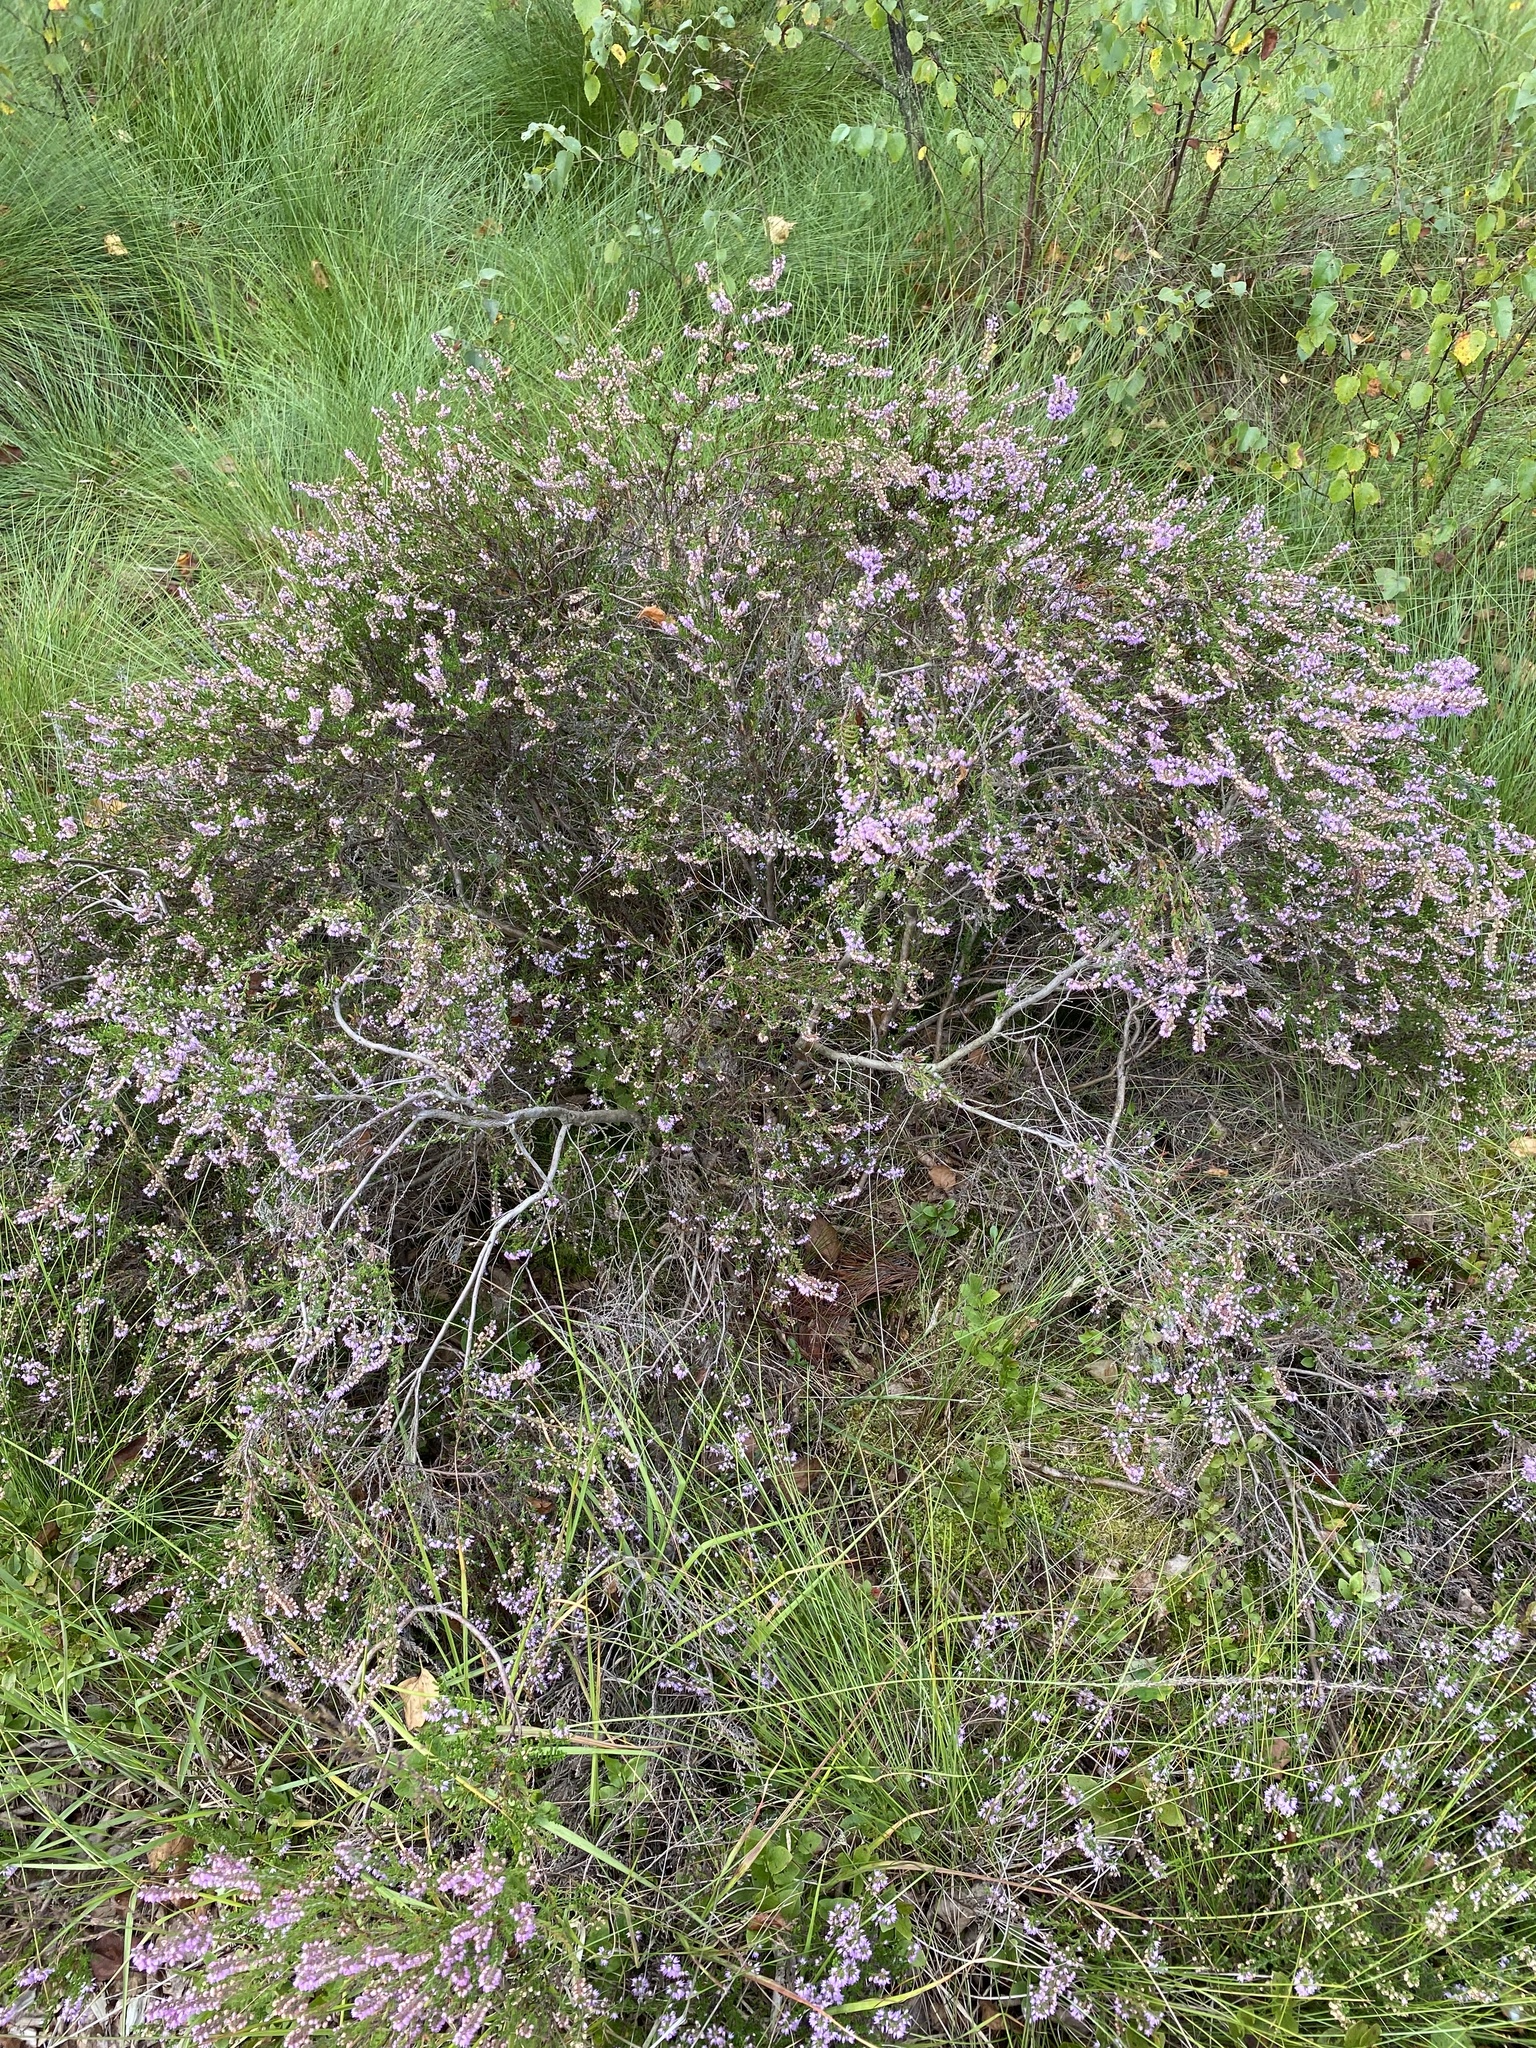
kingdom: Plantae
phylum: Tracheophyta
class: Magnoliopsida
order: Ericales
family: Ericaceae
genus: Calluna
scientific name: Calluna vulgaris
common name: Heather
